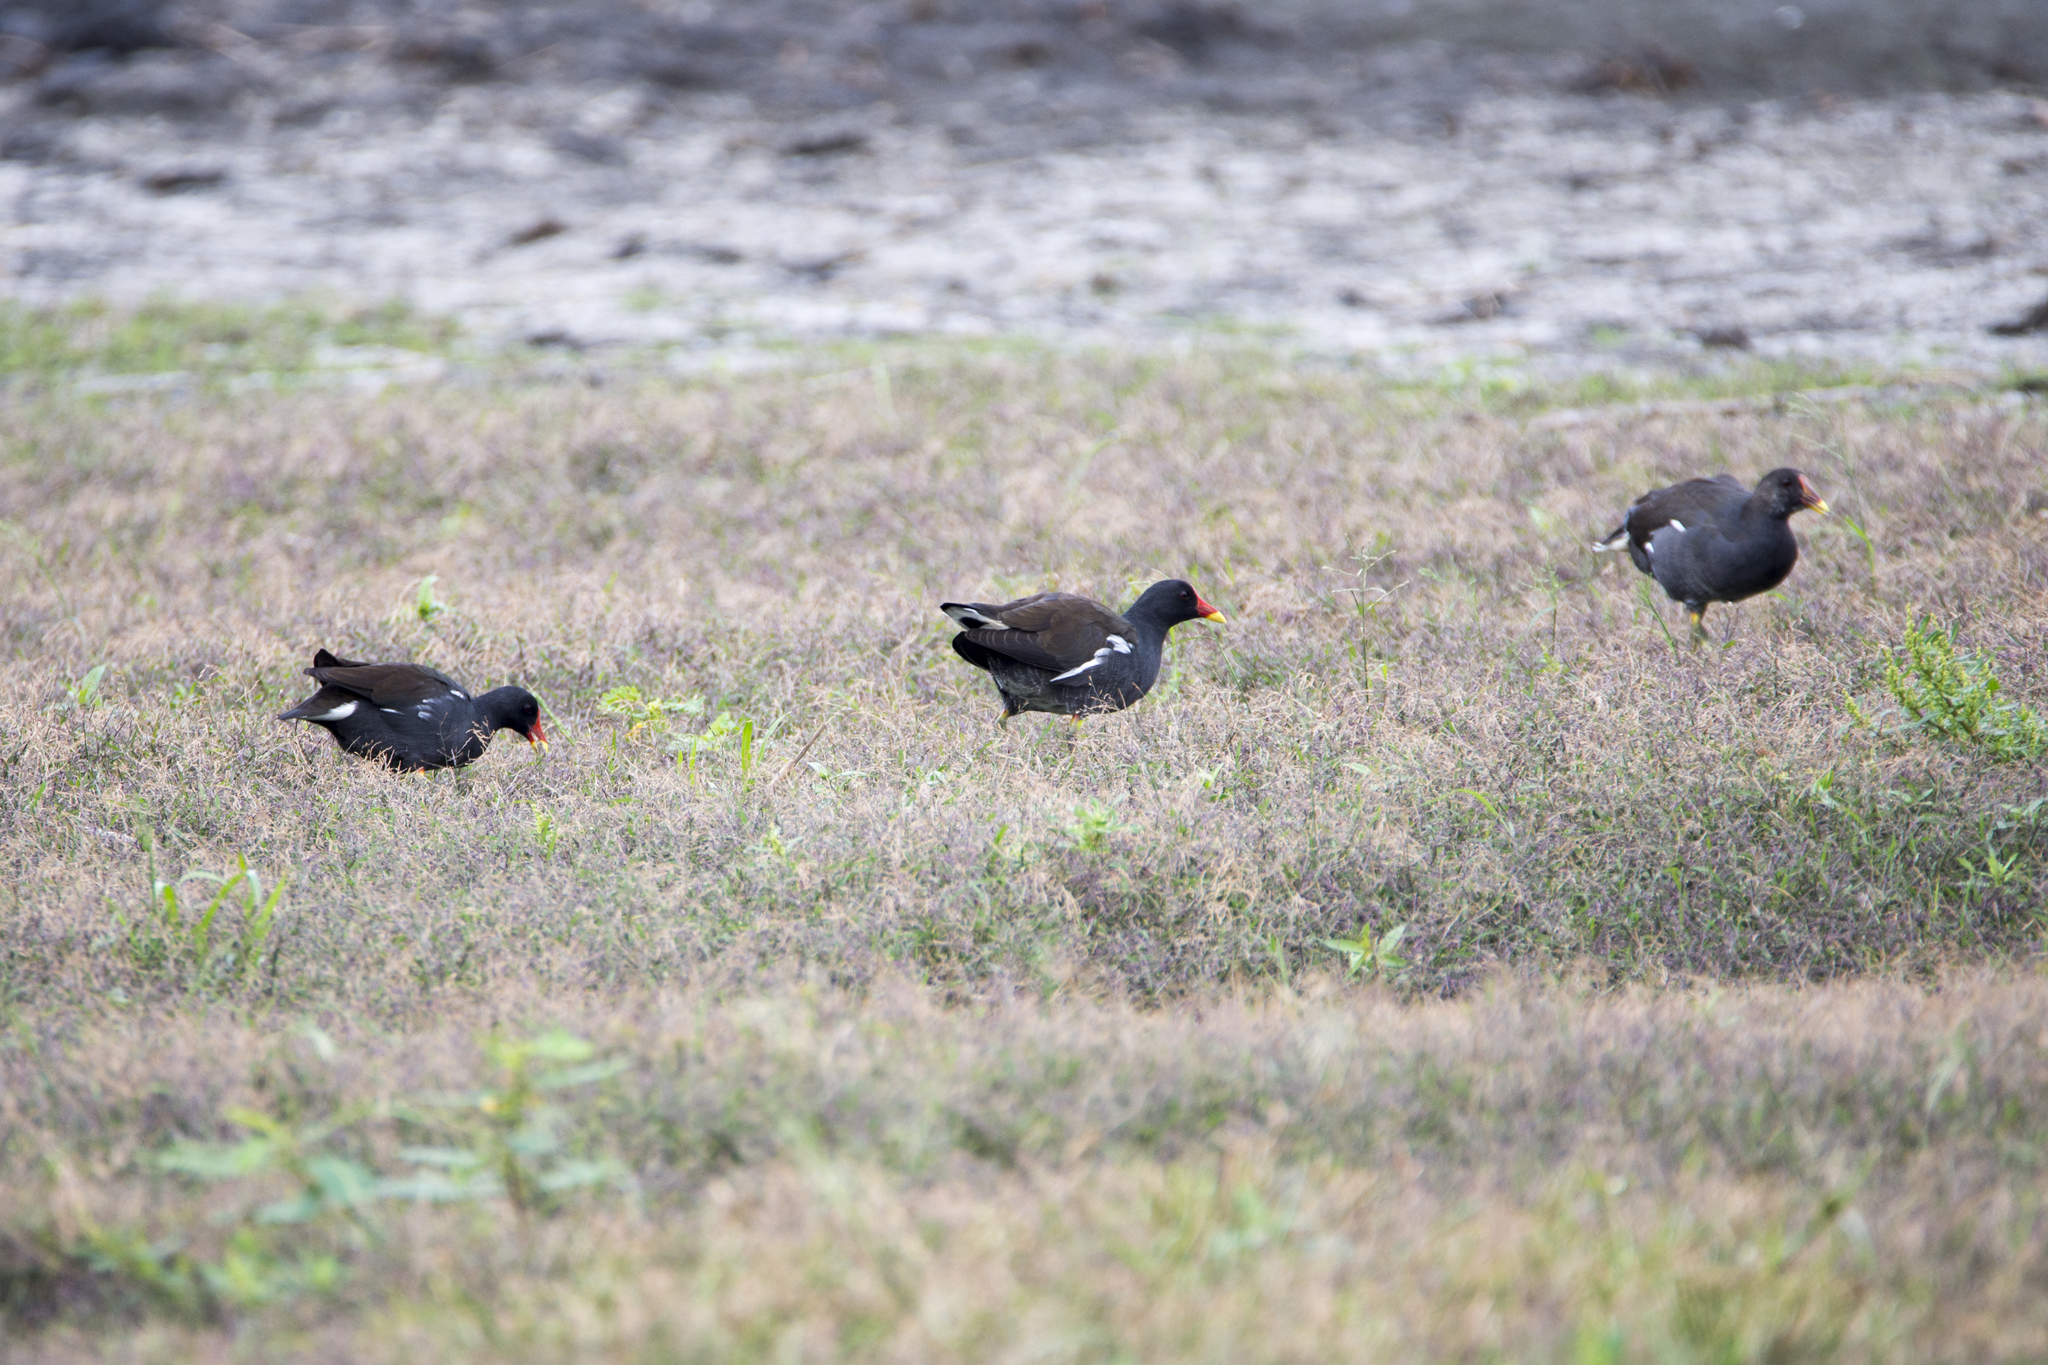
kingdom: Animalia
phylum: Chordata
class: Aves
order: Gruiformes
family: Rallidae
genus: Gallinula
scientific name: Gallinula chloropus
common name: Common moorhen
